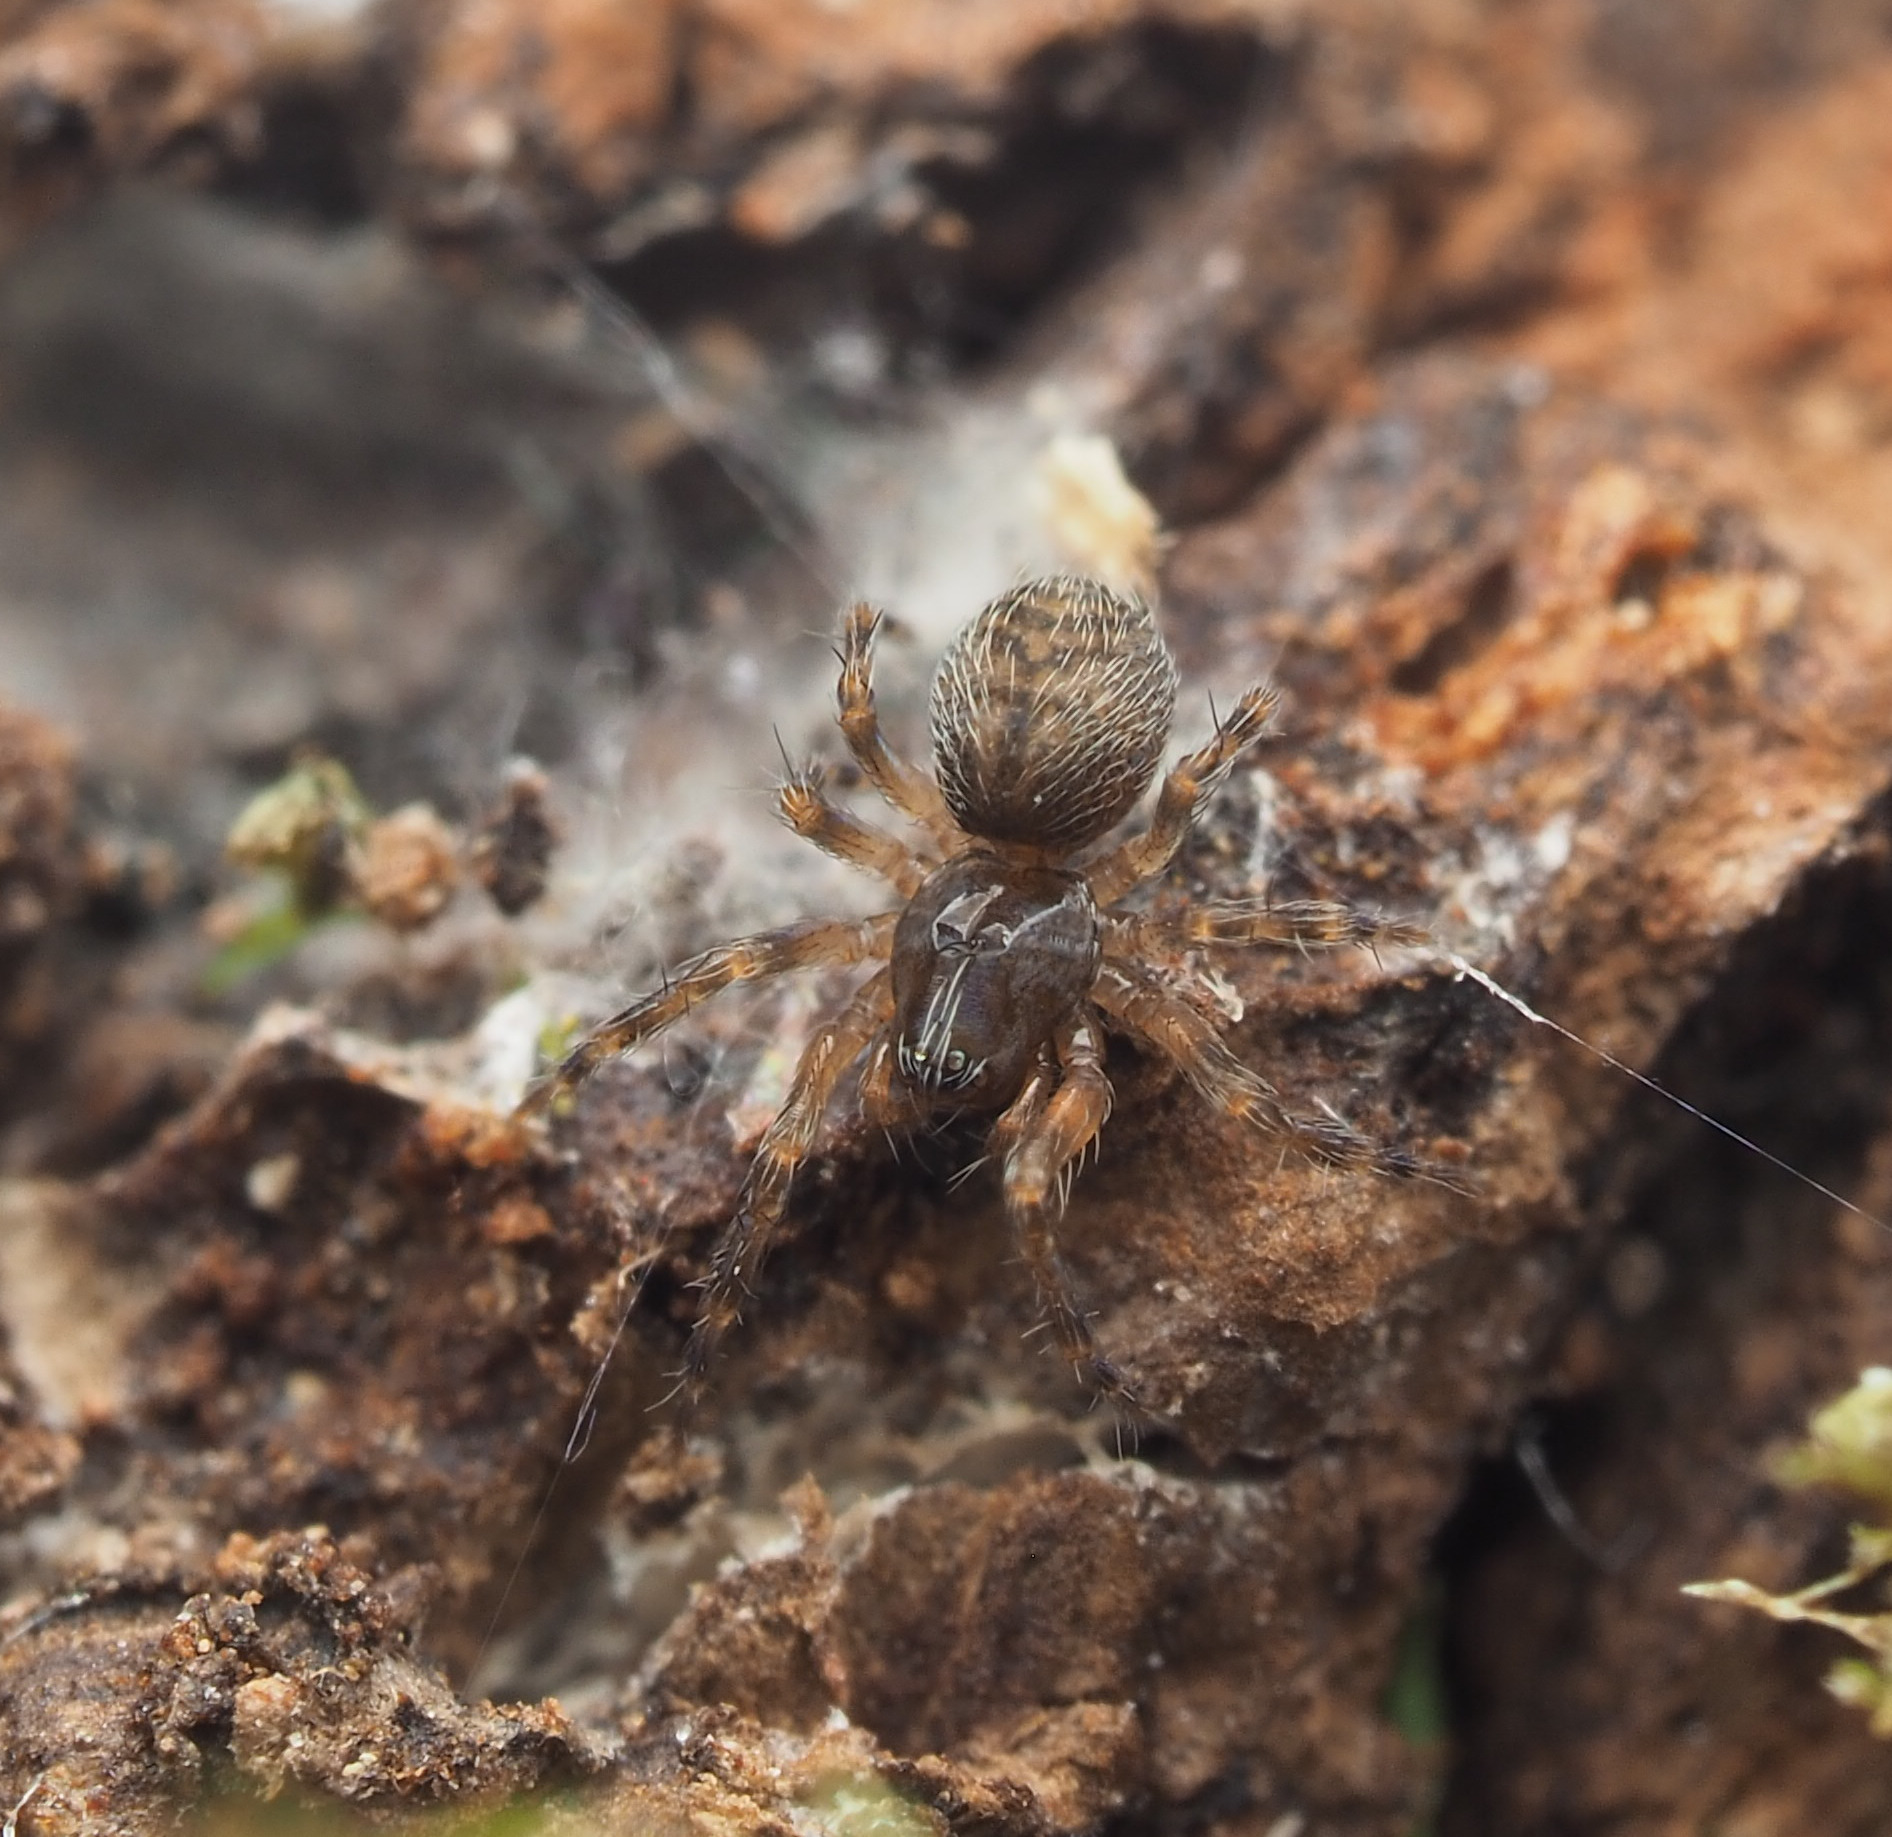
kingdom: Animalia
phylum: Arthropoda
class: Arachnida
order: Araneae
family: Hahniidae
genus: Alistra
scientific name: Alistra
